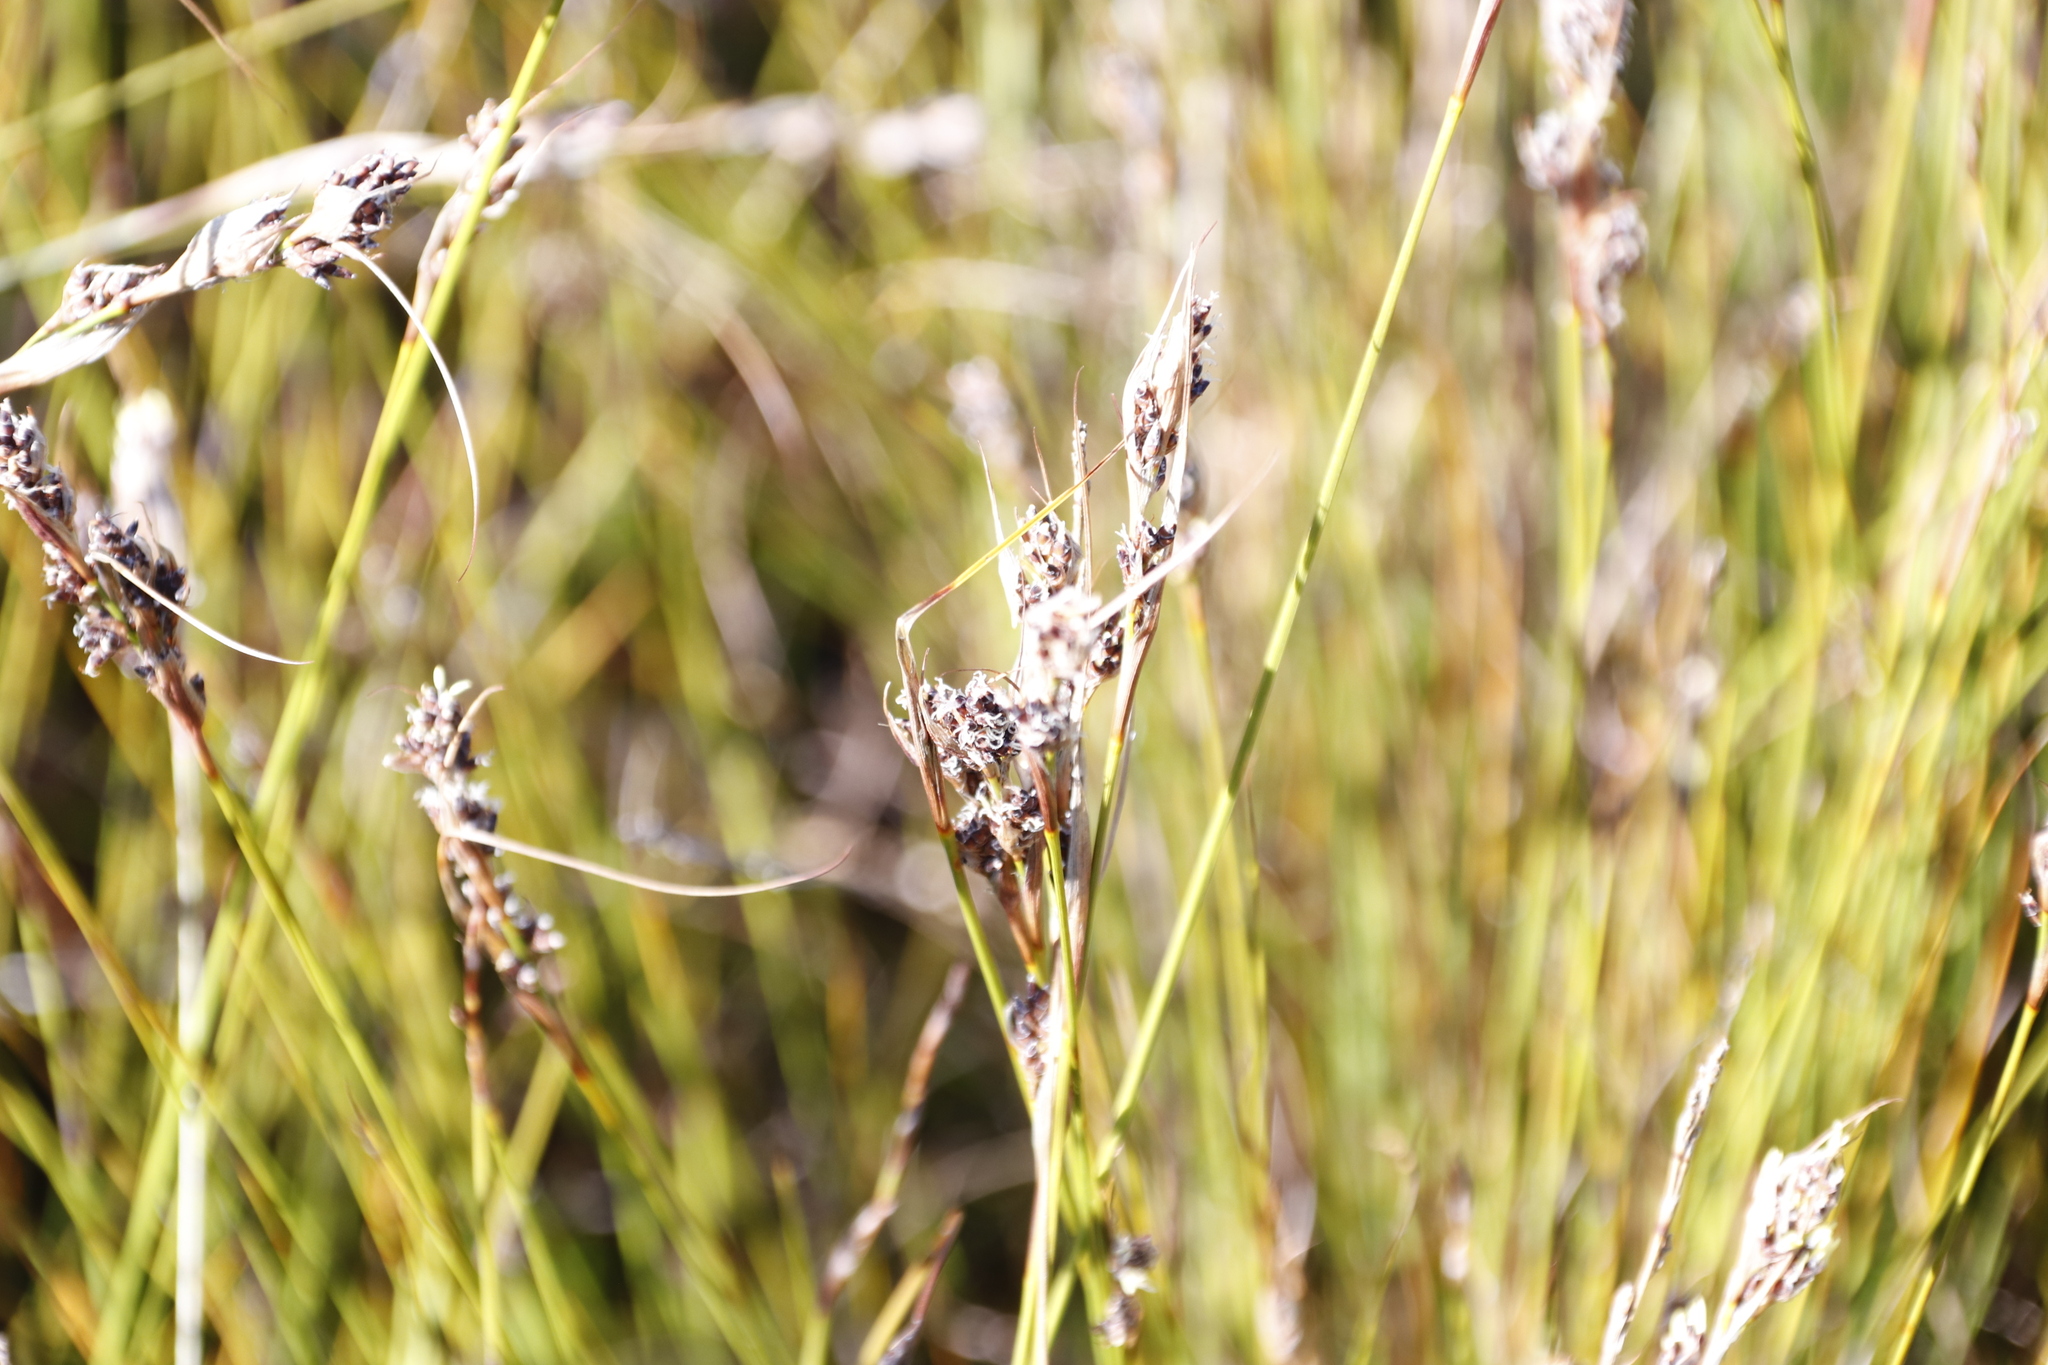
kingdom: Plantae
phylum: Tracheophyta
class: Liliopsida
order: Poales
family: Cyperaceae
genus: Tetraria
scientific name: Tetraria fimbriolata
